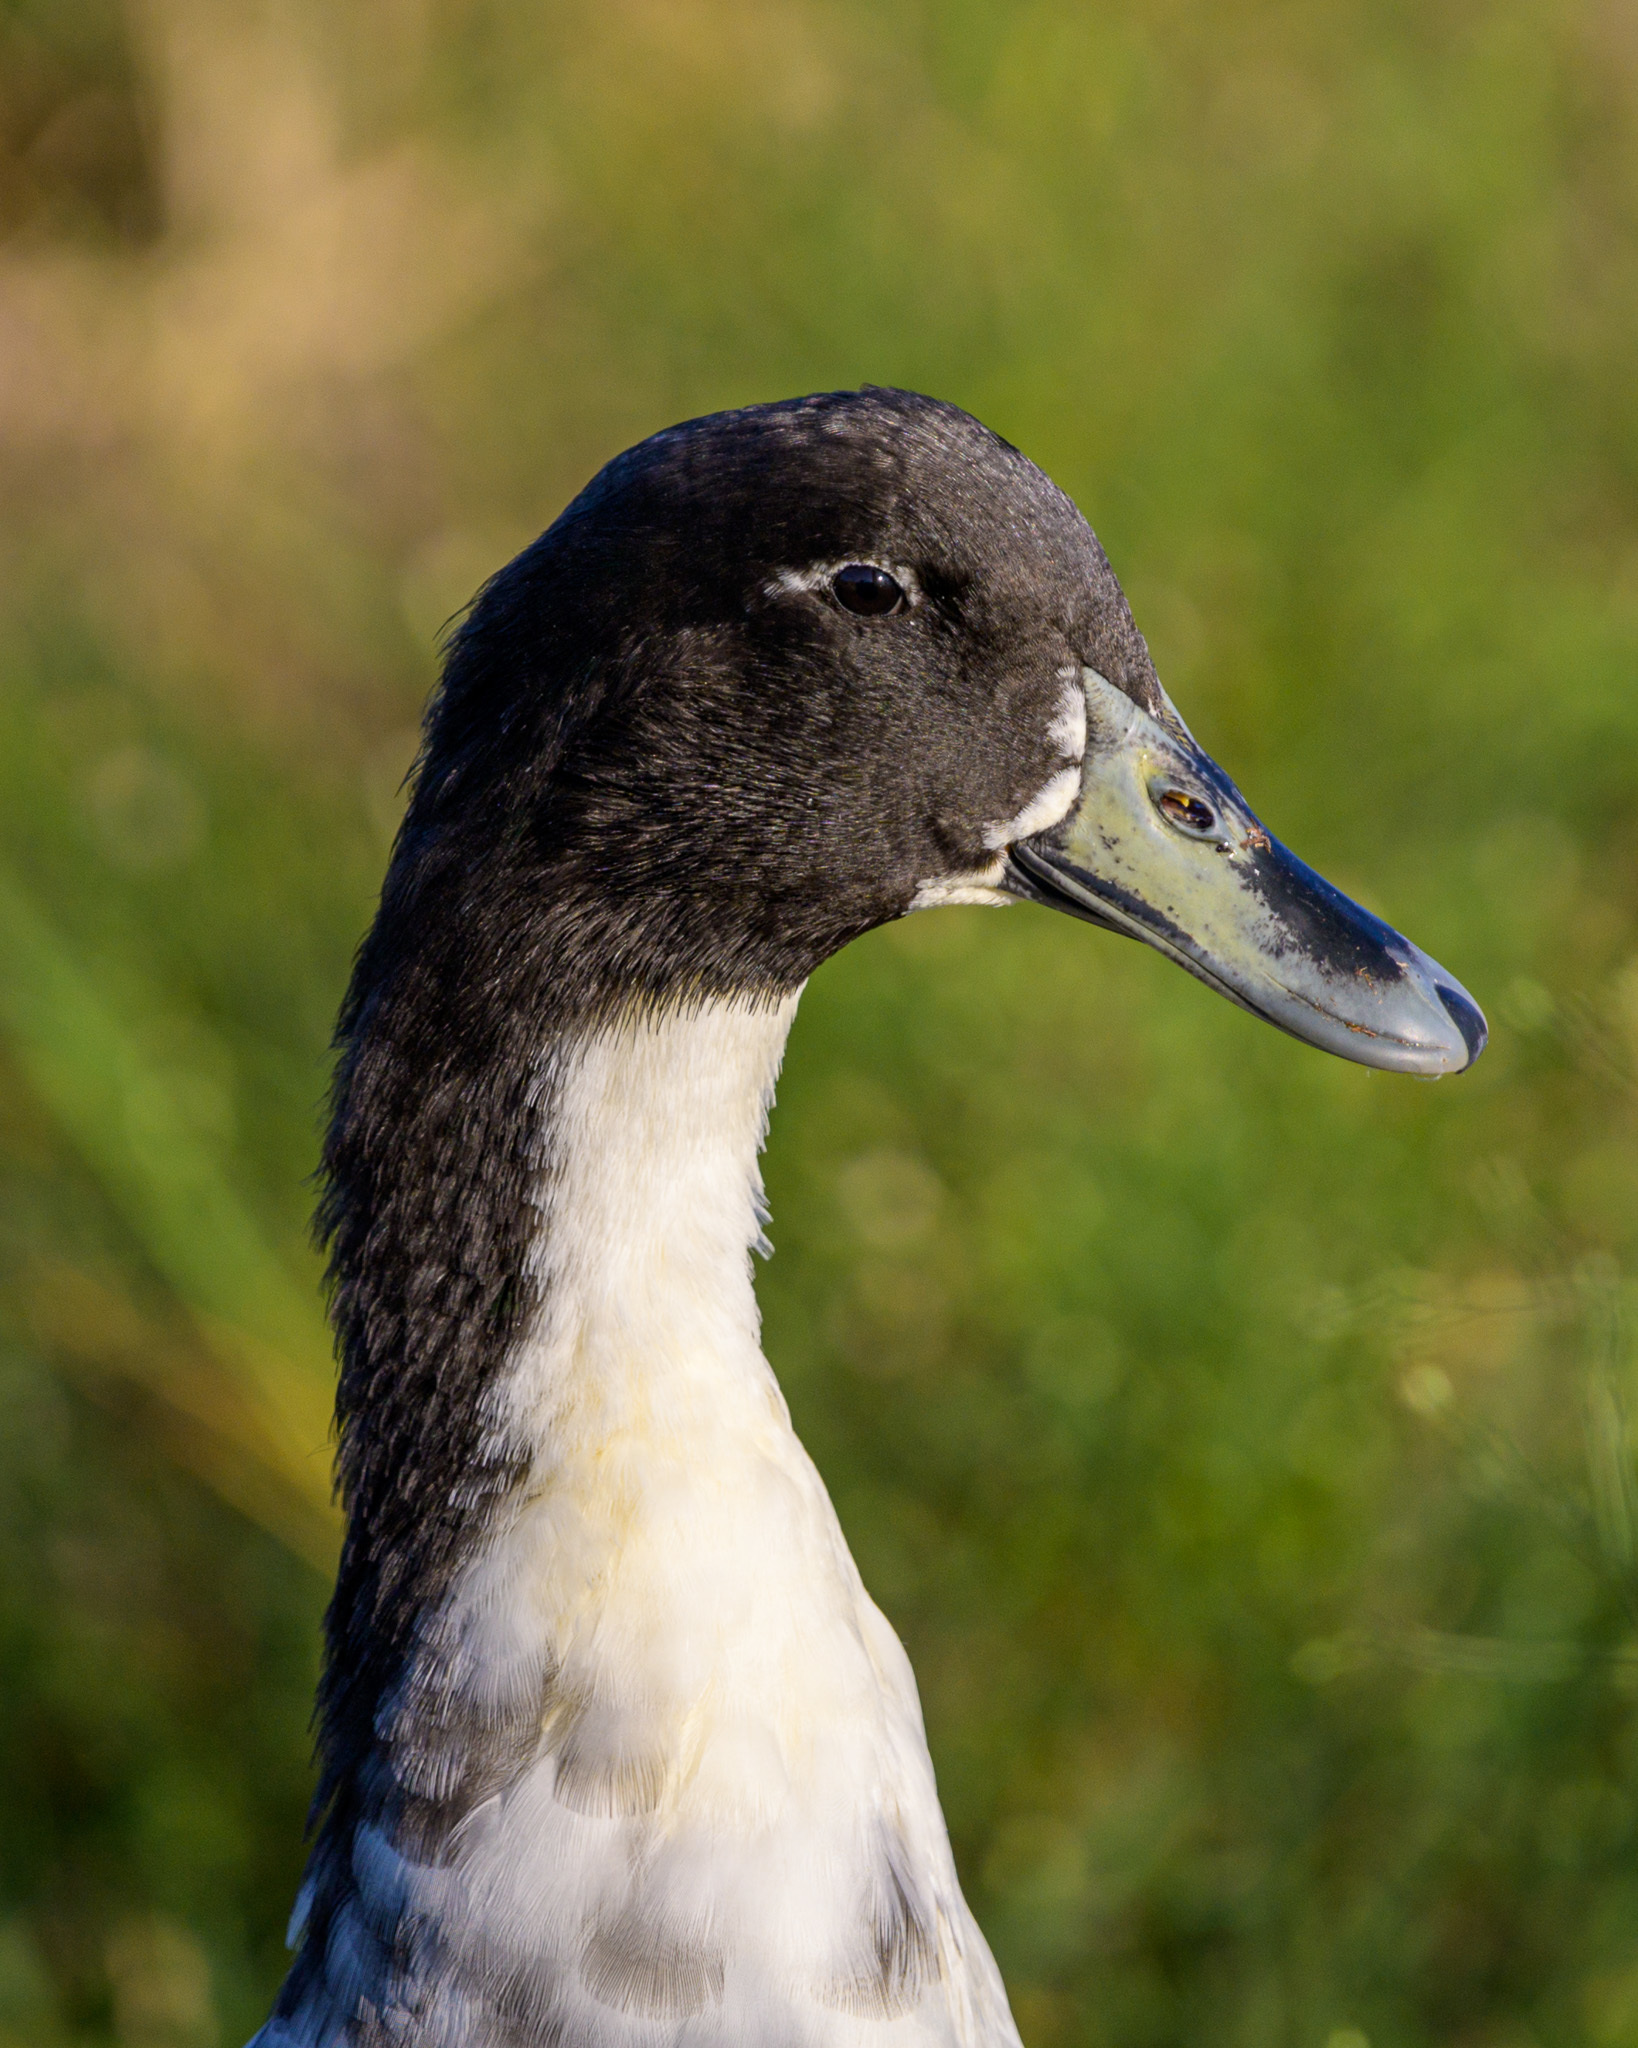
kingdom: Animalia
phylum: Chordata
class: Aves
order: Anseriformes
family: Anatidae
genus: Anas
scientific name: Anas platyrhynchos
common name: Mallard
